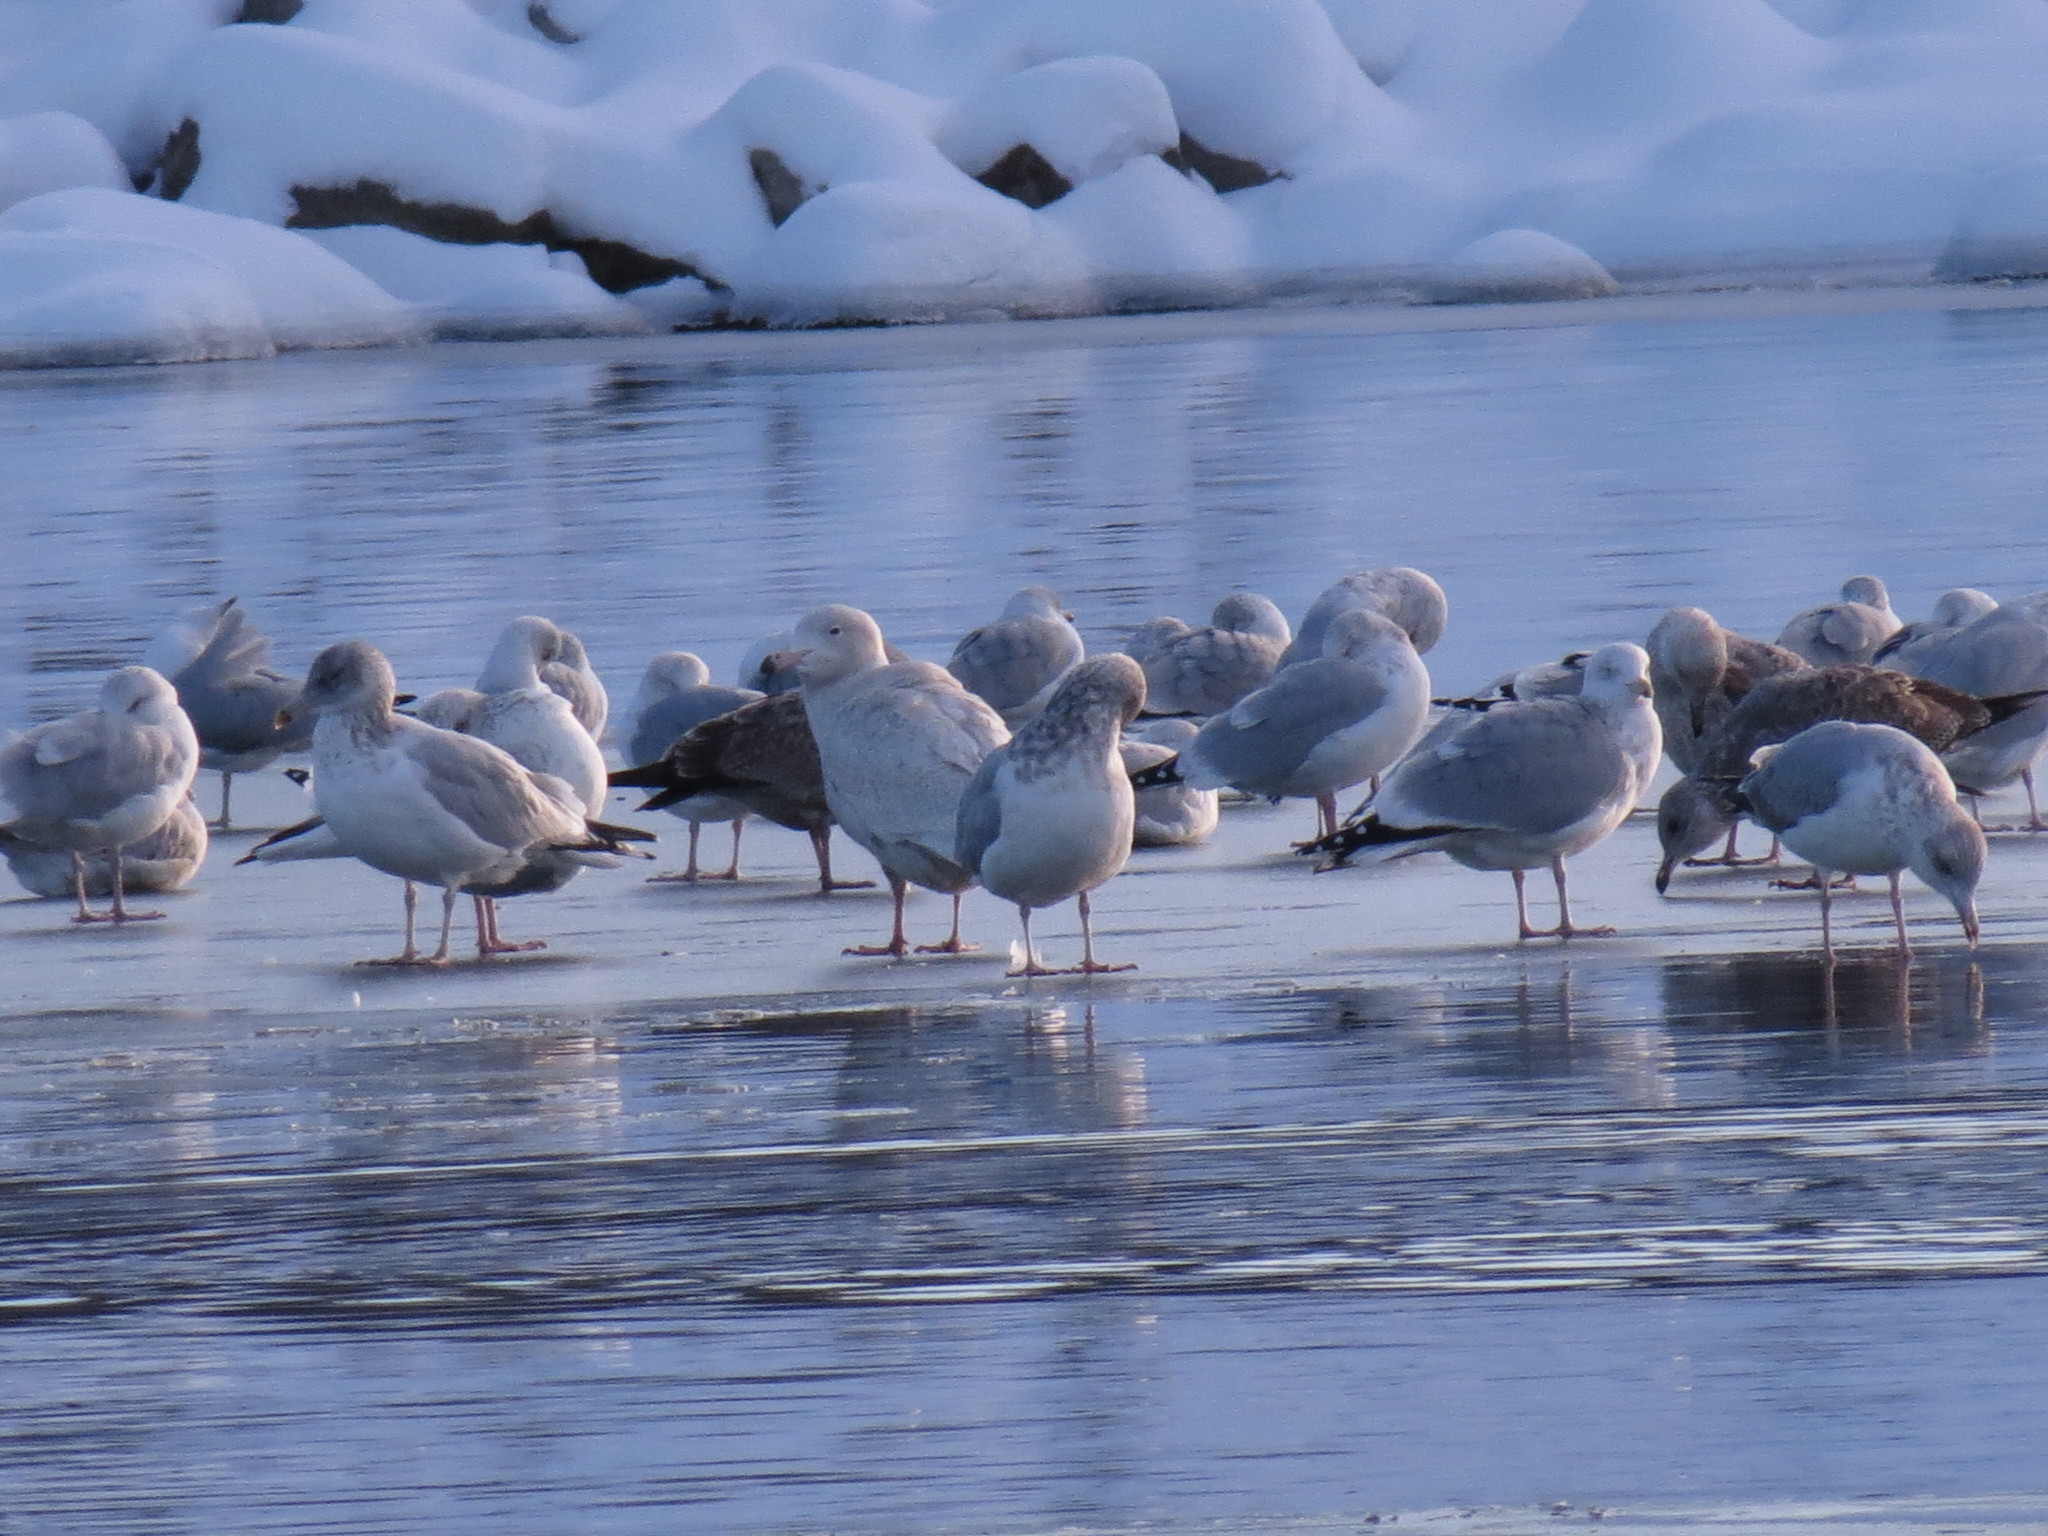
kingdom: Animalia
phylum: Chordata
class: Aves
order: Charadriiformes
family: Laridae
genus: Larus
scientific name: Larus hyperboreus
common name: Glaucous gull
